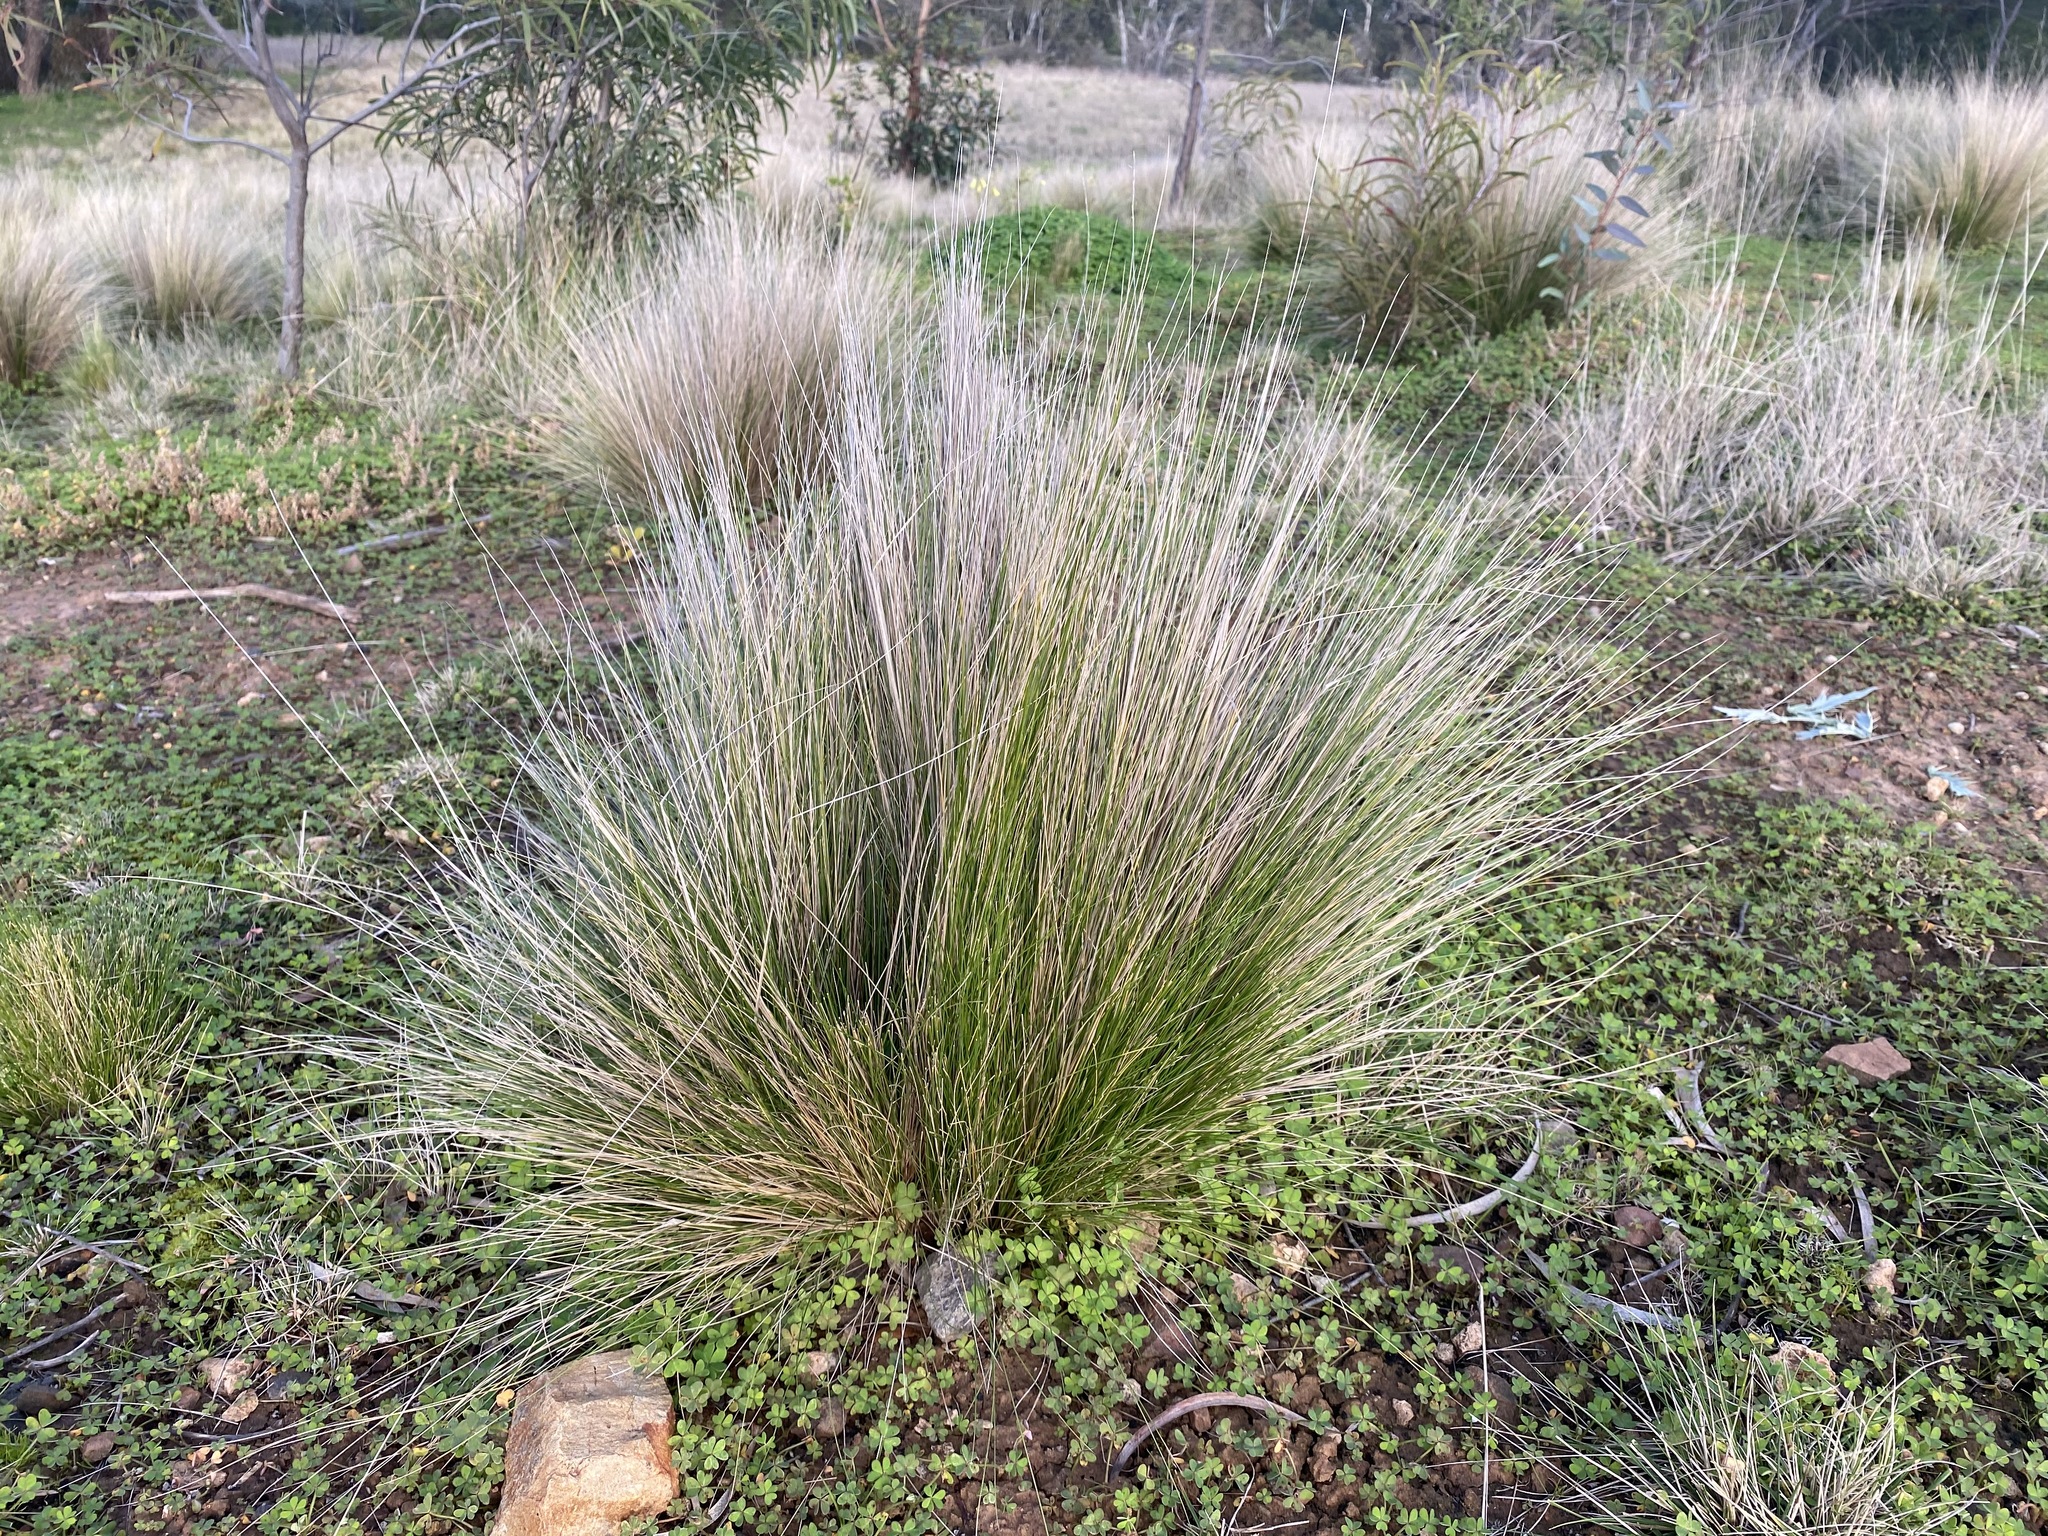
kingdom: Plantae
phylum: Tracheophyta
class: Liliopsida
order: Poales
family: Poaceae
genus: Nassella
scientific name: Nassella trichotoma
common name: Serrated tussock grass
